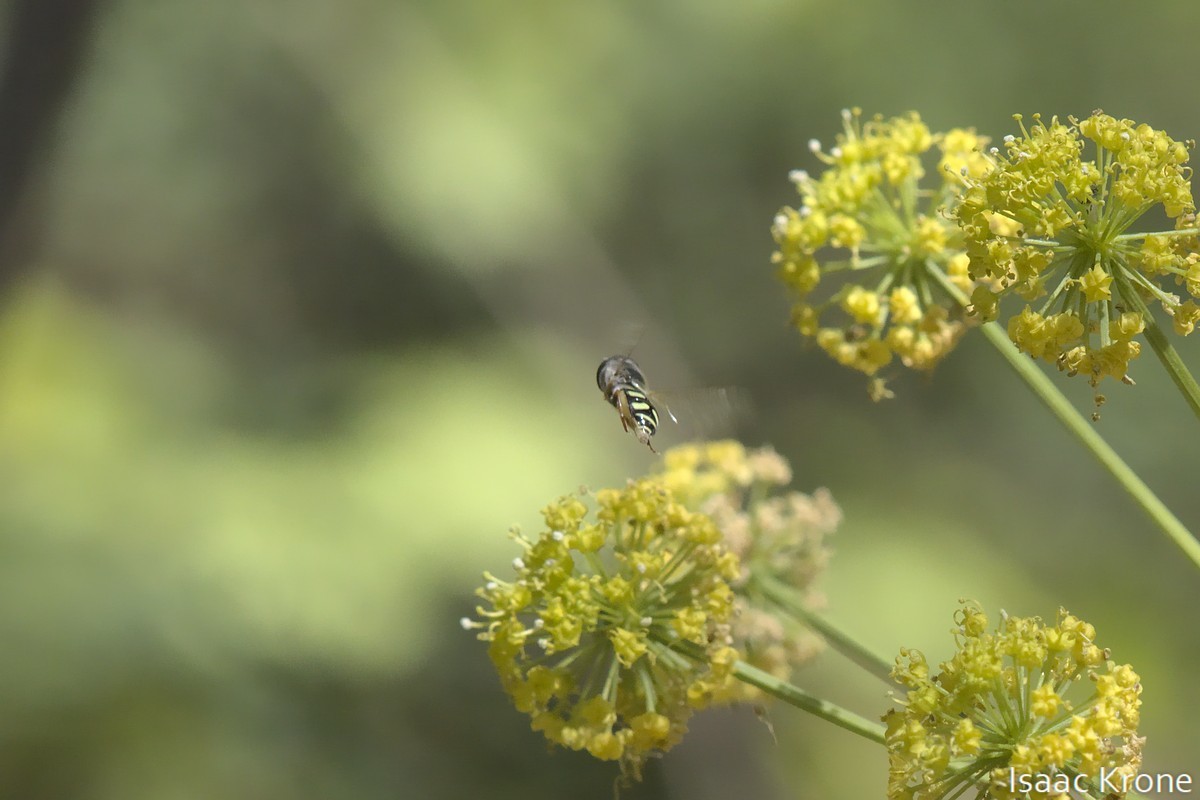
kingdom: Animalia
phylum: Arthropoda
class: Insecta
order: Diptera
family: Syrphidae
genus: Eupeodes
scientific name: Eupeodes volucris
